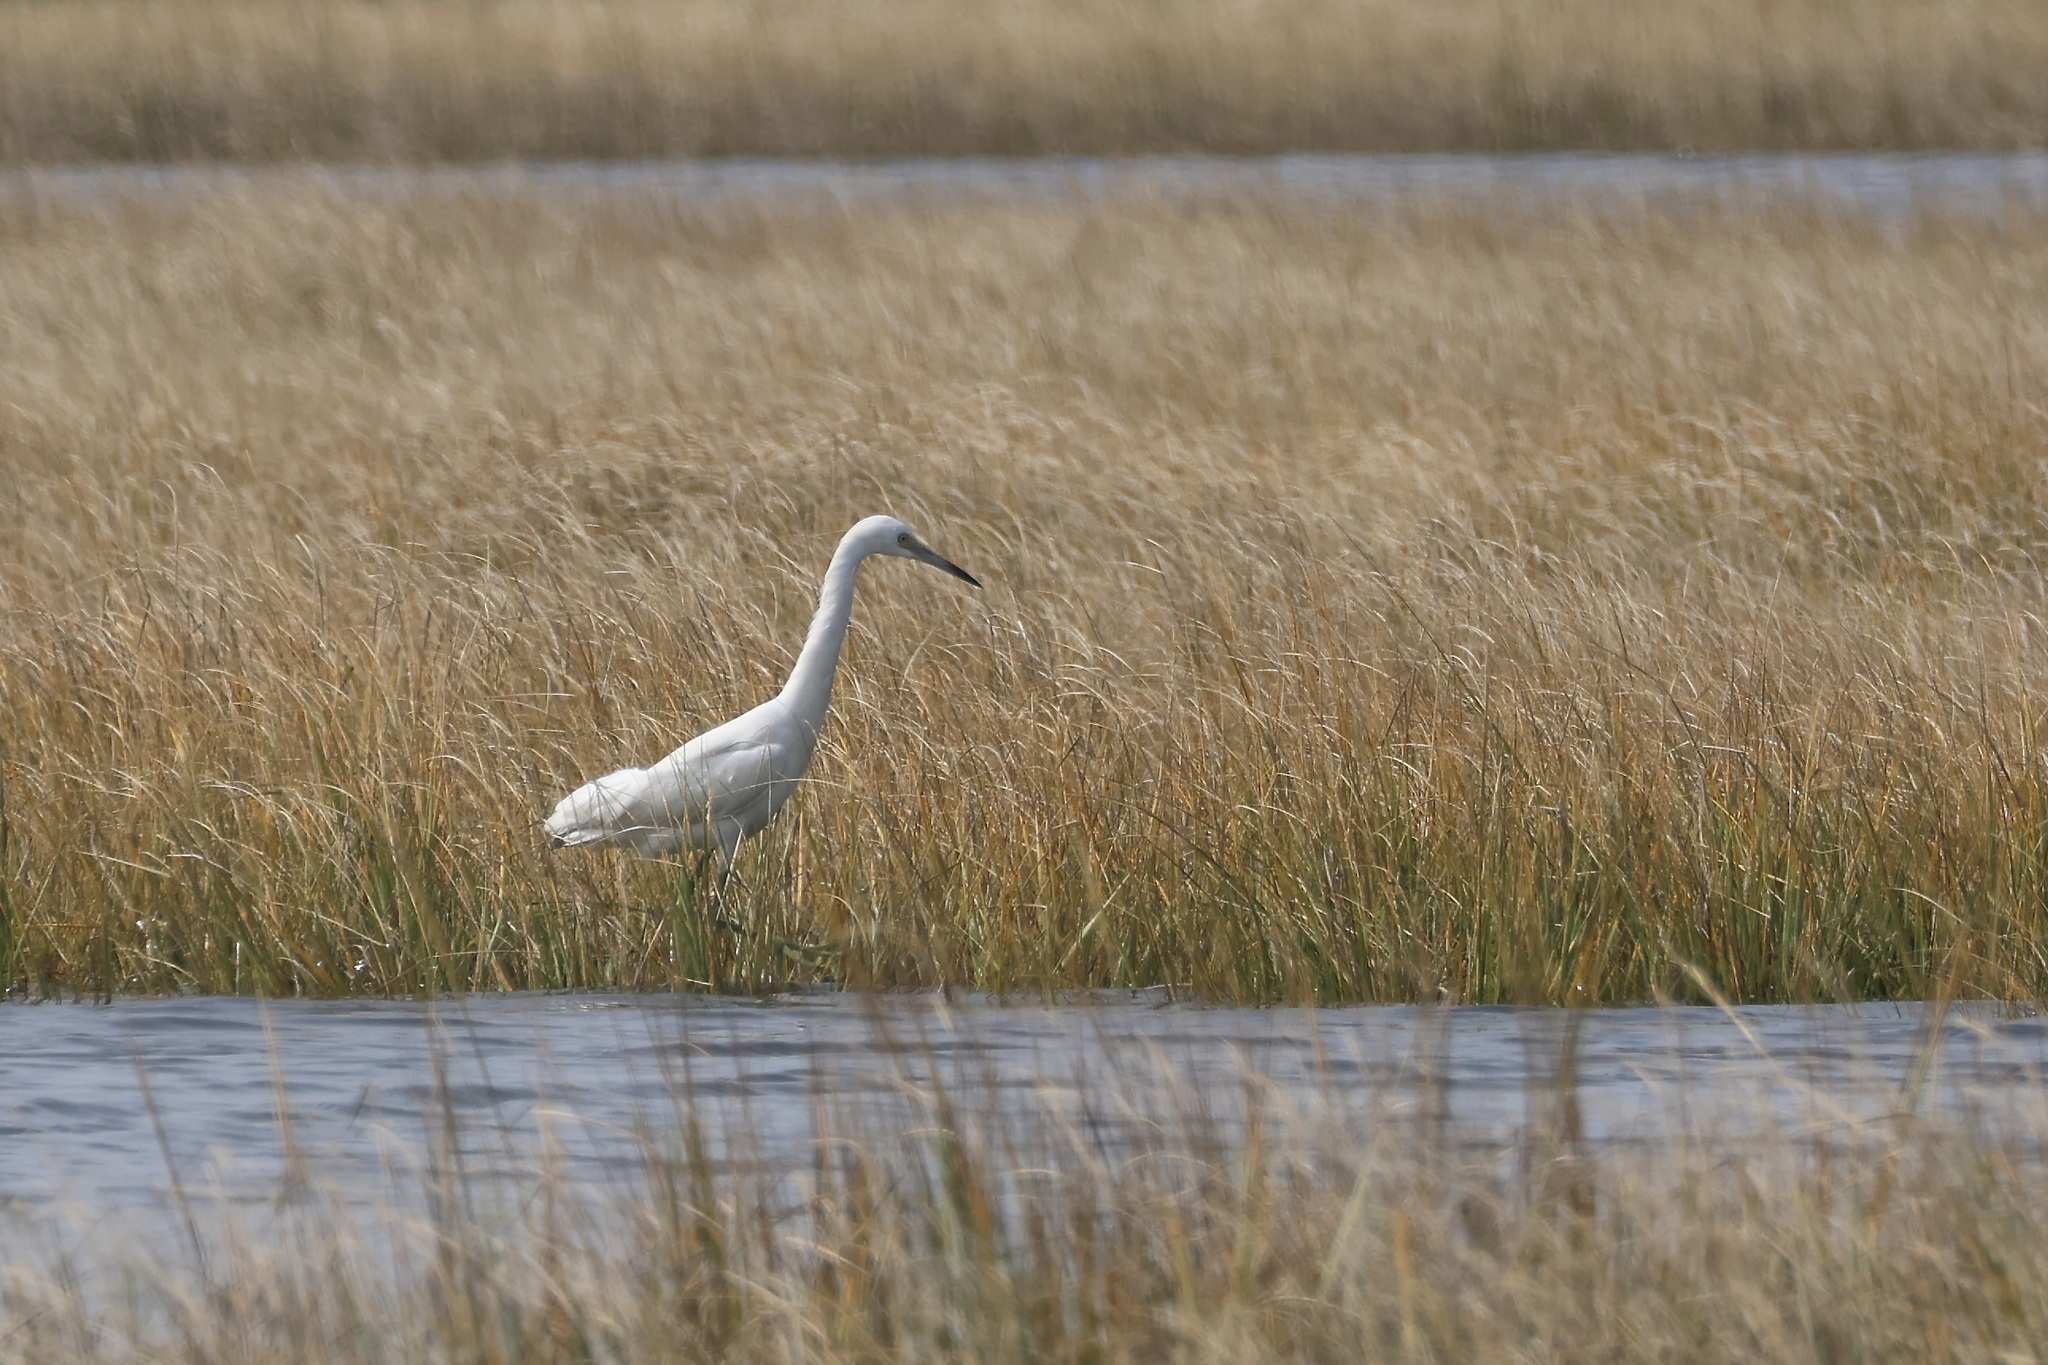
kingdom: Animalia
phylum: Chordata
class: Aves
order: Pelecaniformes
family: Ardeidae
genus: Egretta
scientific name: Egretta caerulea
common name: Little blue heron
